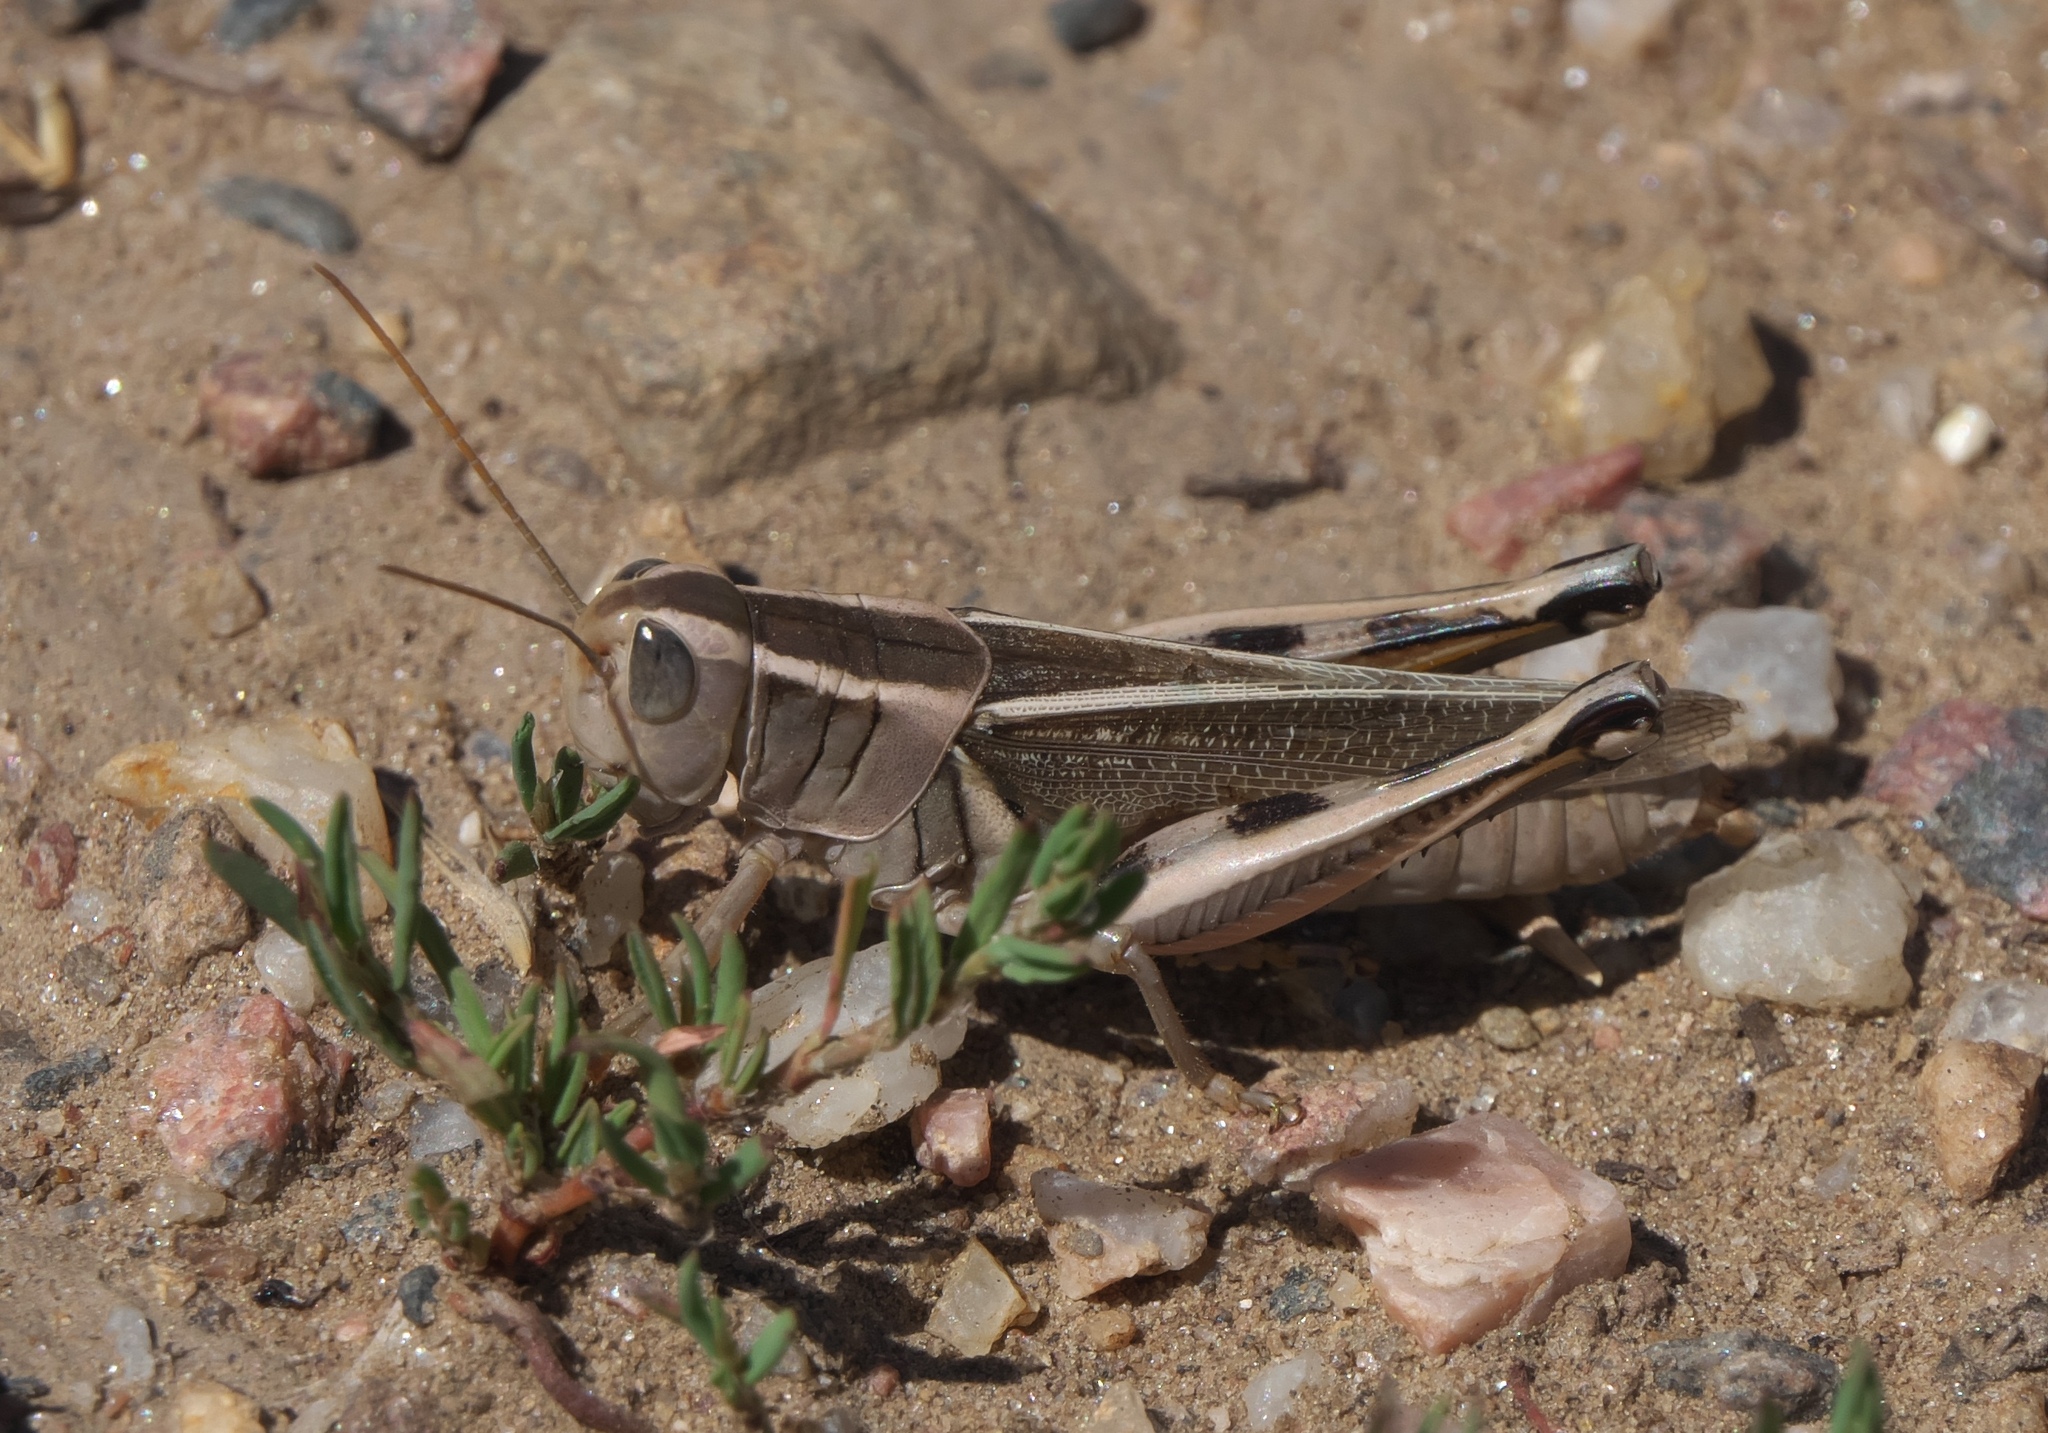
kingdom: Animalia
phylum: Arthropoda
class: Insecta
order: Orthoptera
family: Acrididae
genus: Melanoplus
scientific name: Melanoplus bivittatus
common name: Two-striped grasshopper
